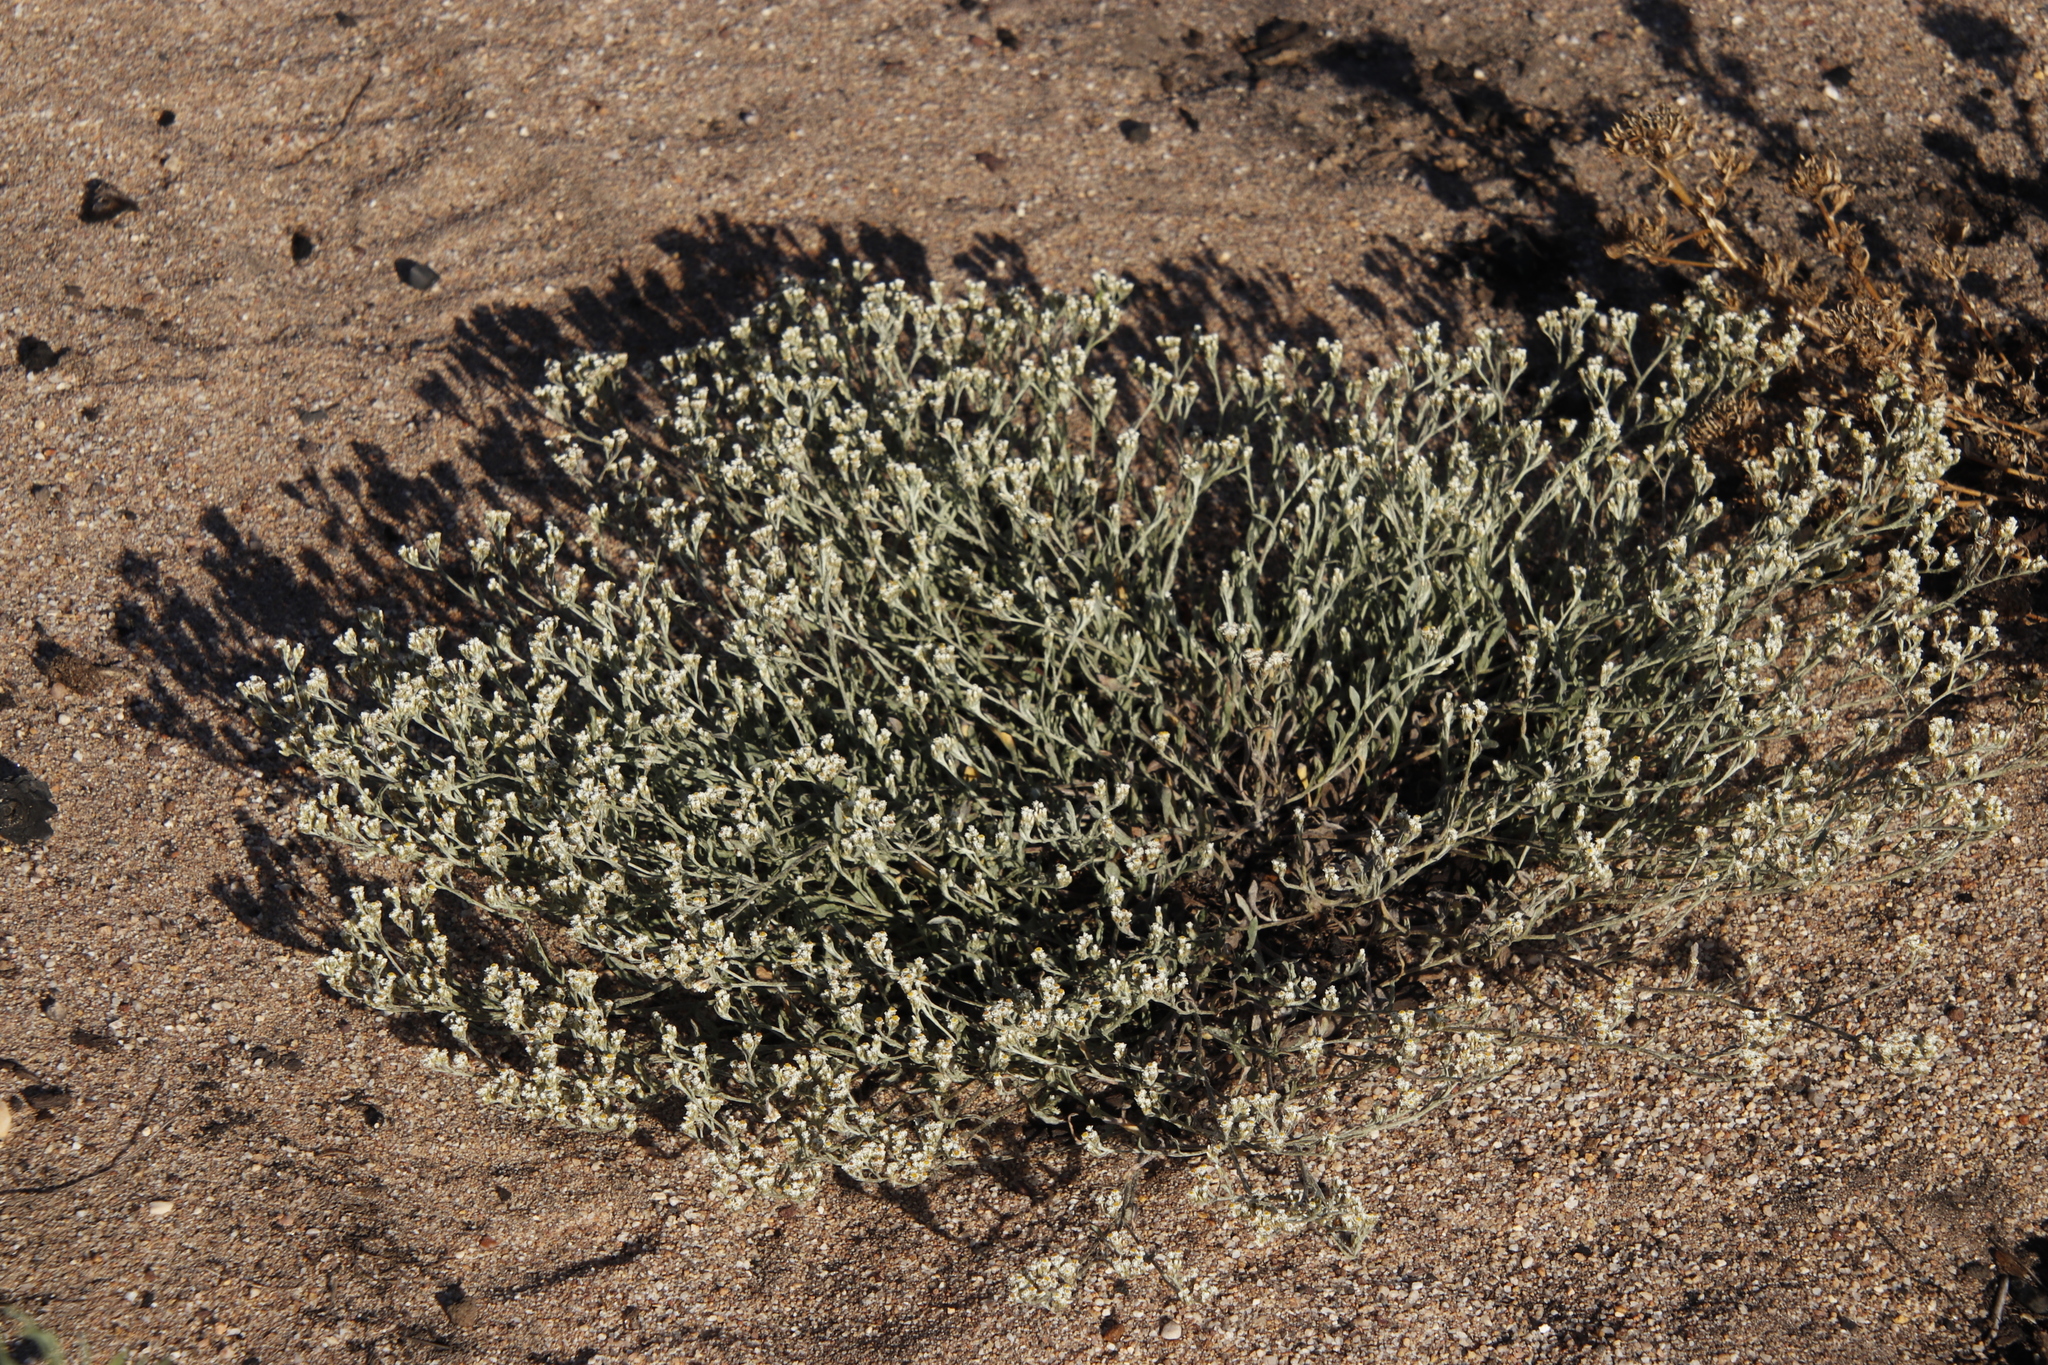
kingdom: Plantae
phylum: Tracheophyta
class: Magnoliopsida
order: Asterales
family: Asteraceae
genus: Helichrysum
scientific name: Helichrysum indicum
